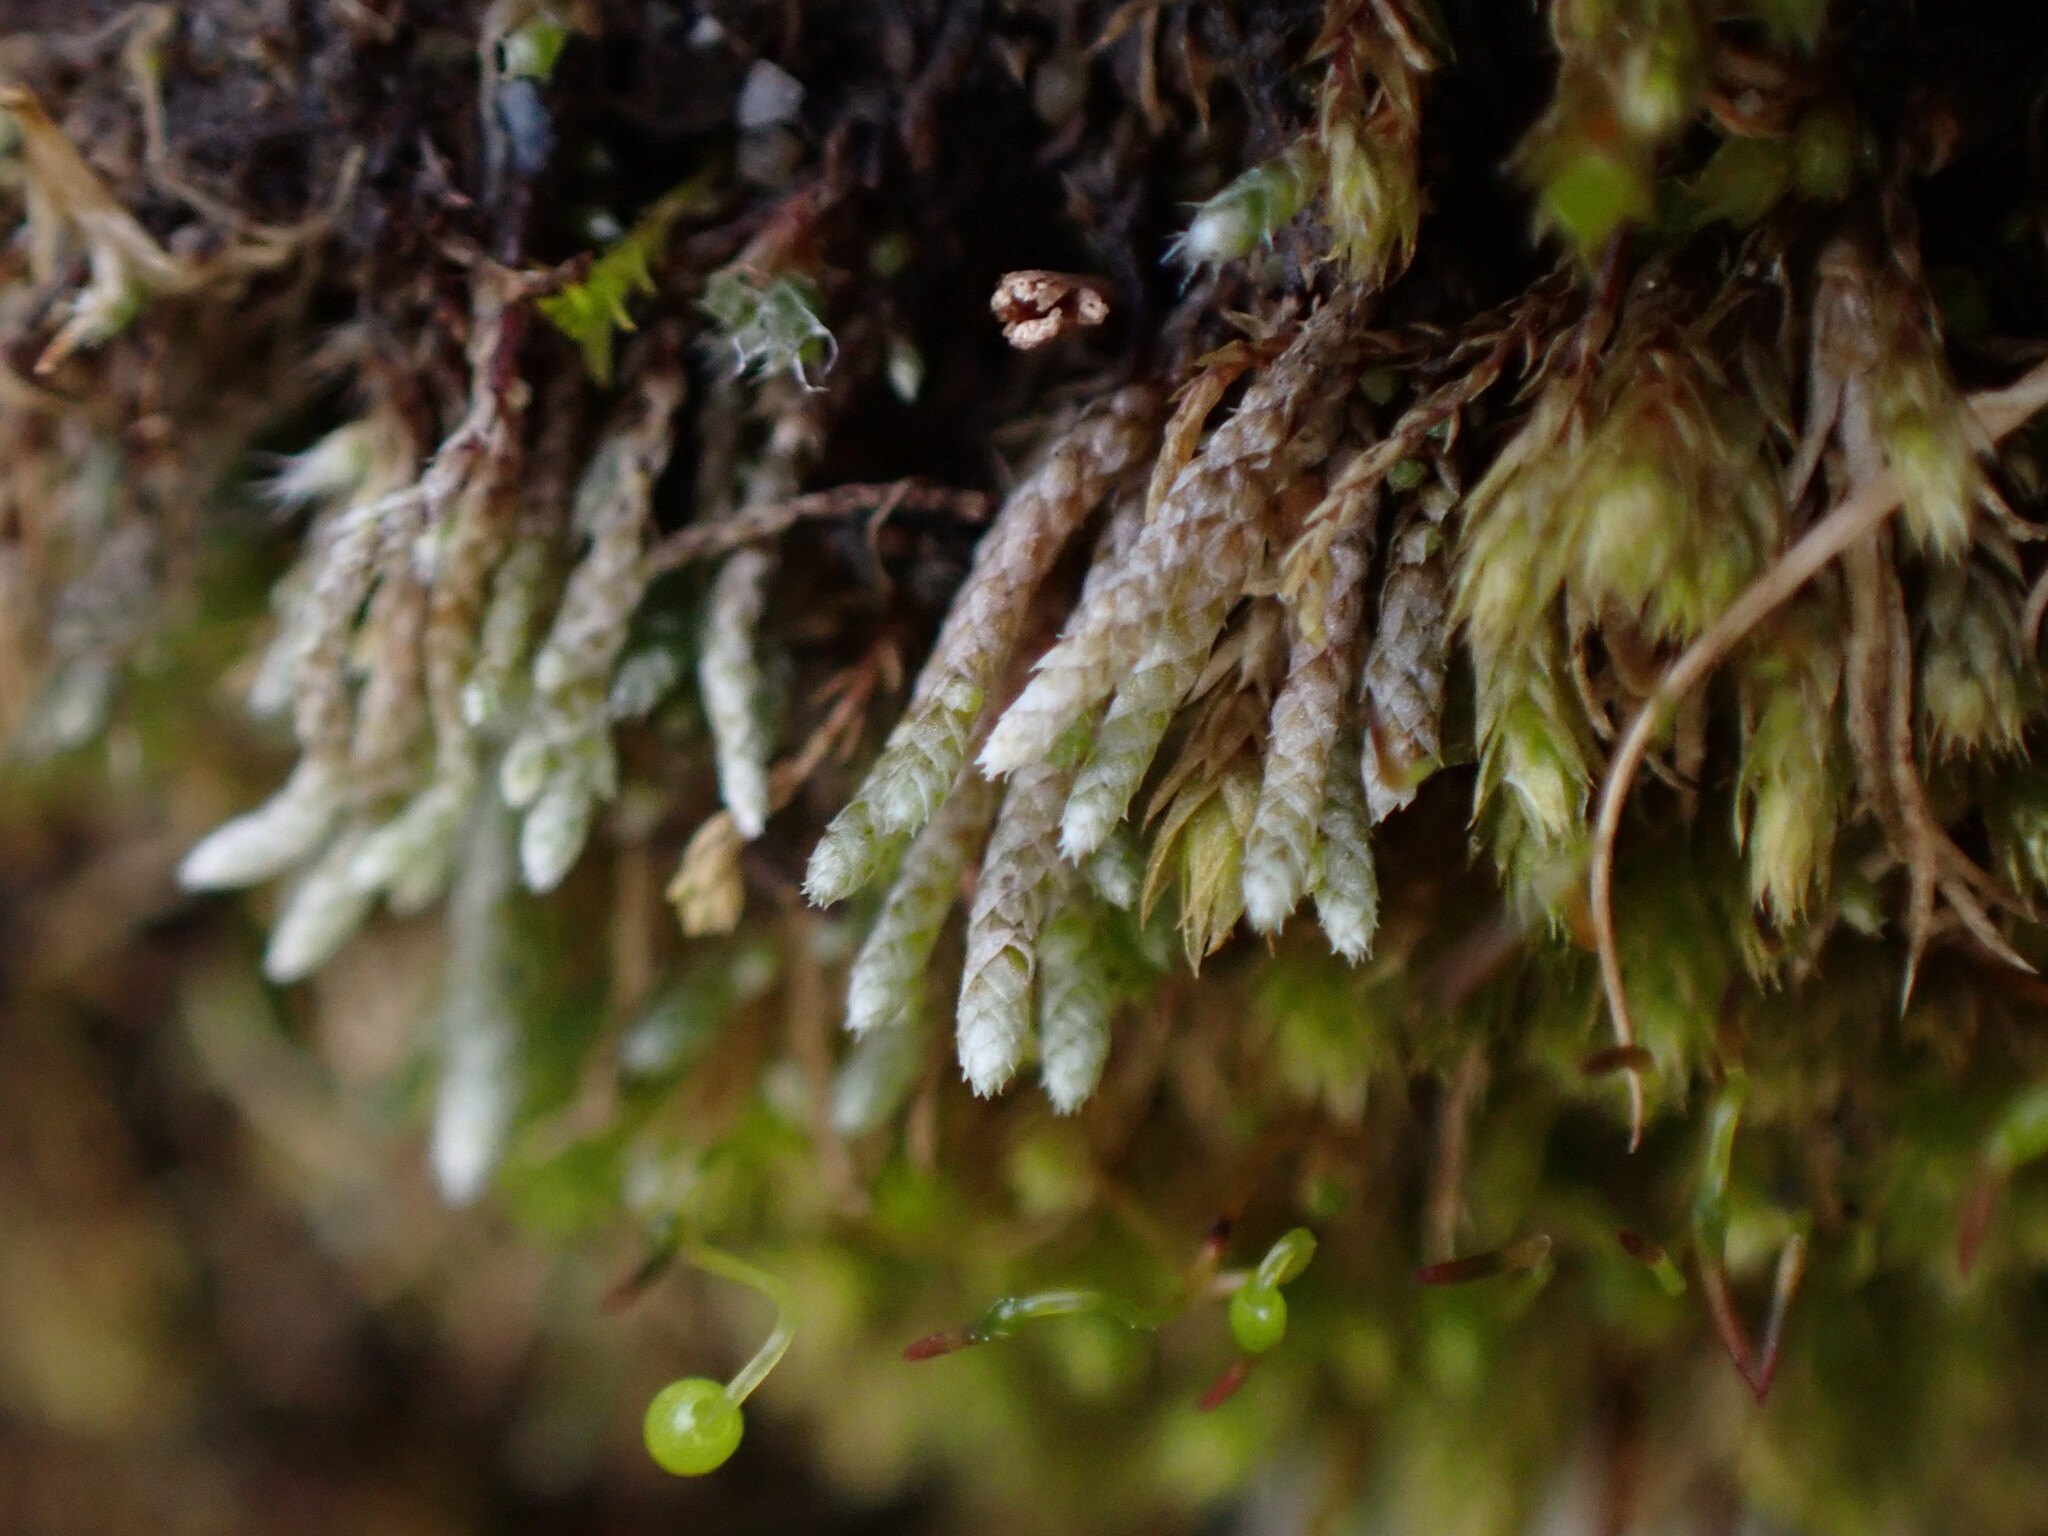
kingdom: Plantae
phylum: Bryophyta
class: Bryopsida
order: Bryales
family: Bryaceae
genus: Bryum
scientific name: Bryum argenteum
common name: Silver-moss
